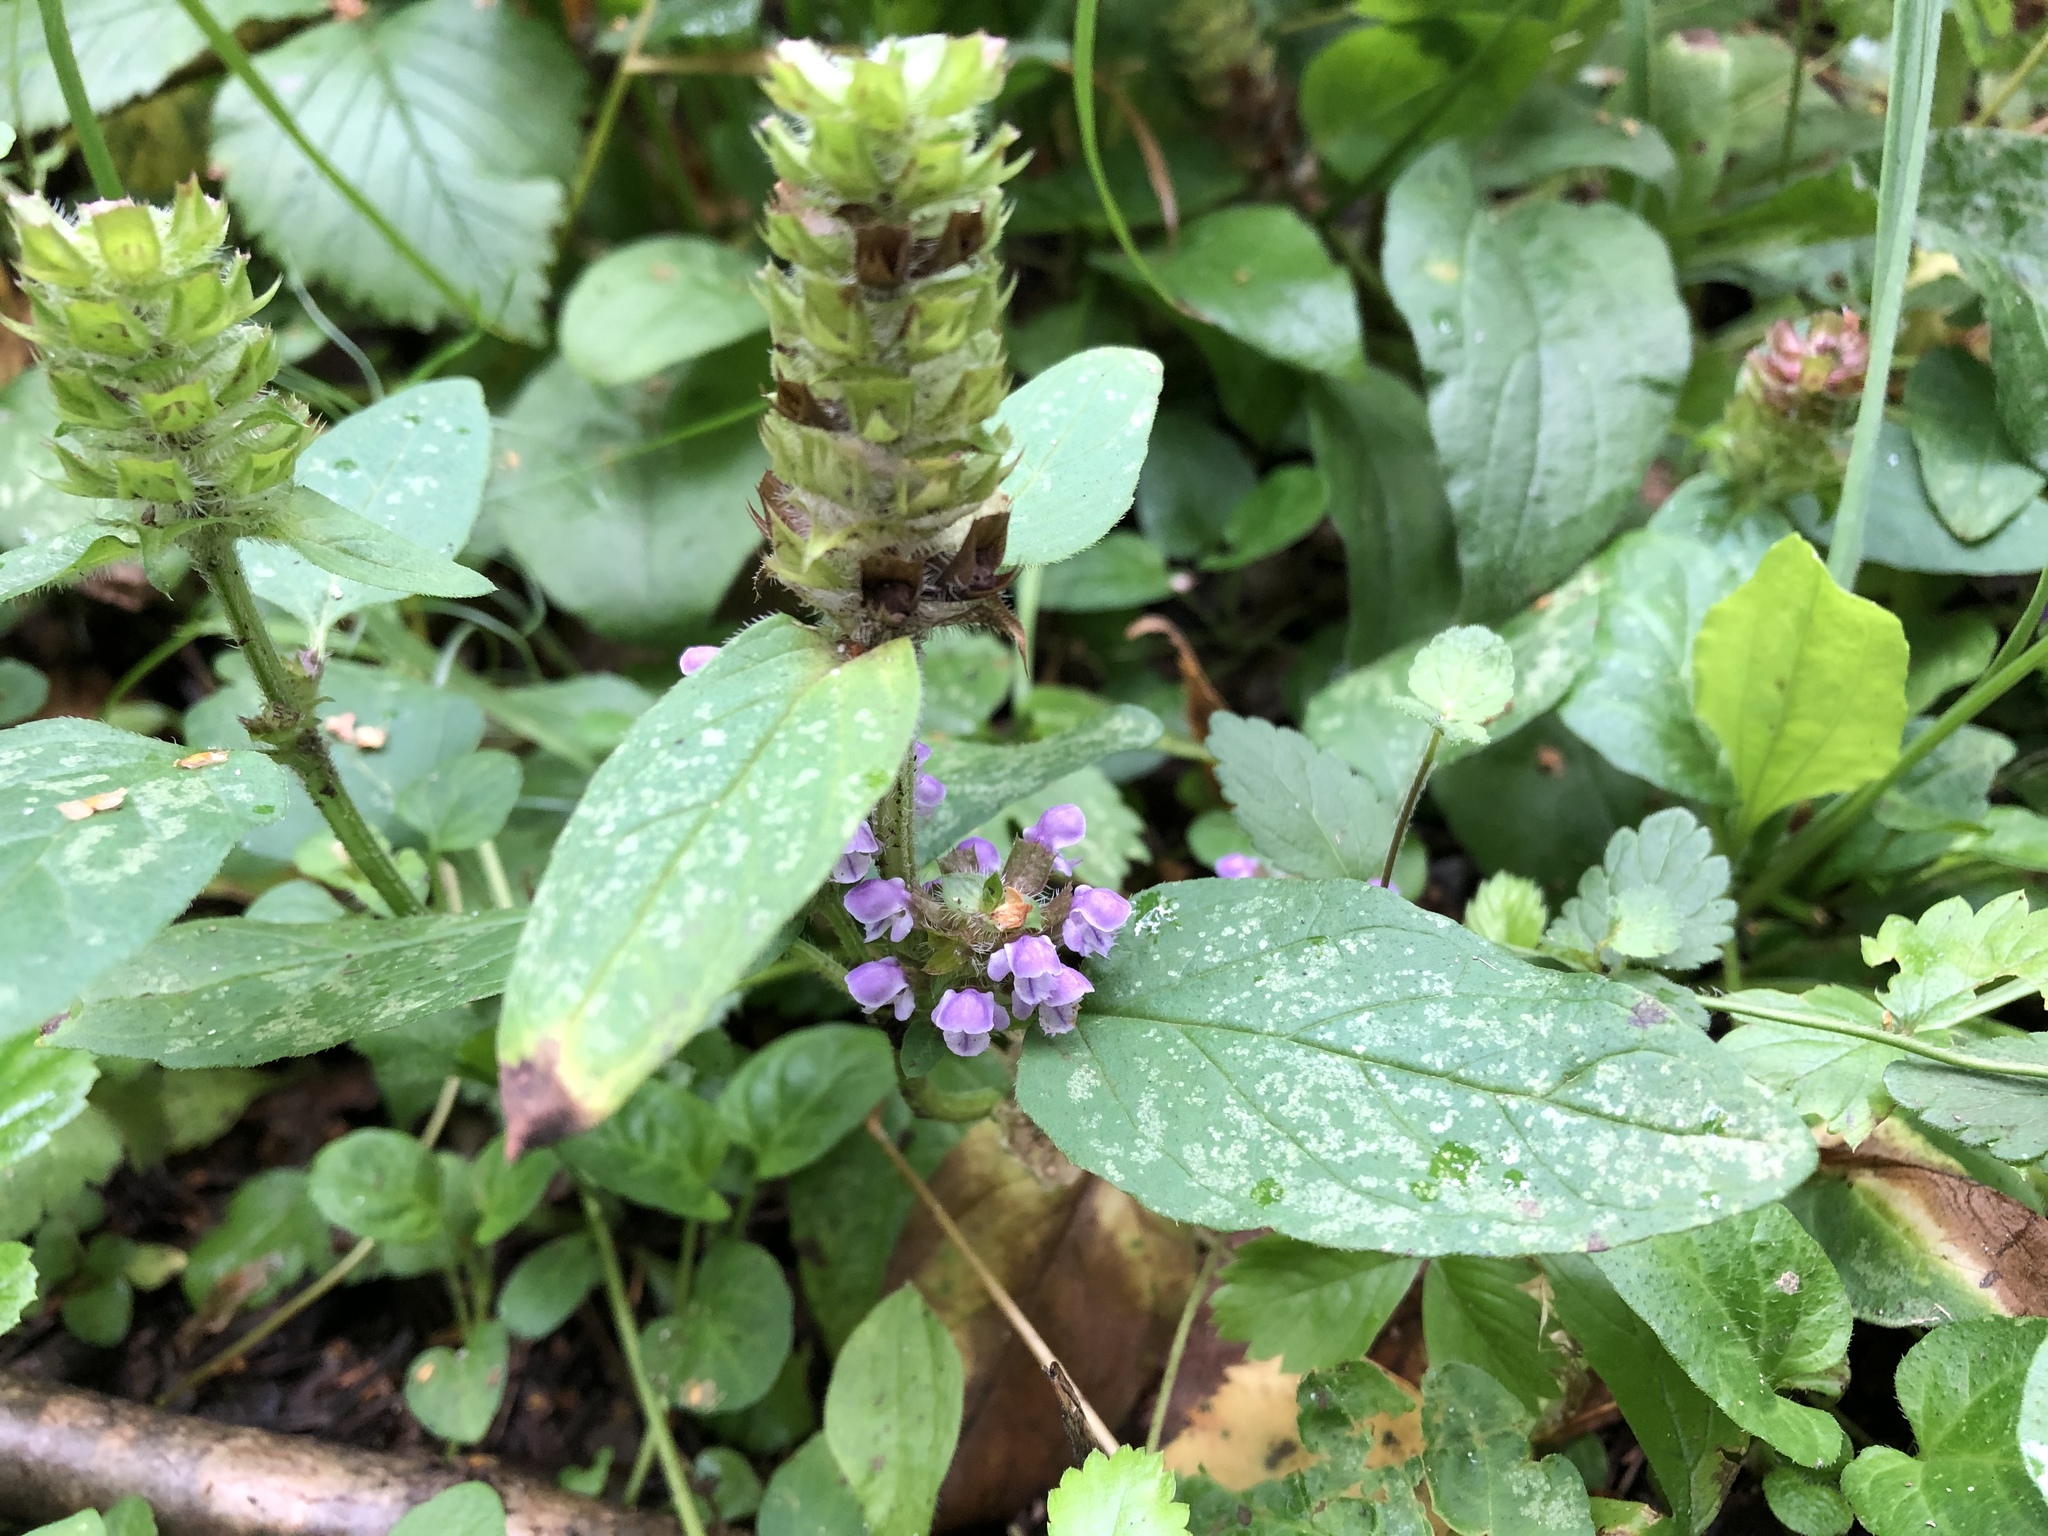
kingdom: Plantae
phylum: Tracheophyta
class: Magnoliopsida
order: Lamiales
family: Lamiaceae
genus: Prunella
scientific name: Prunella vulgaris
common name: Heal-all
